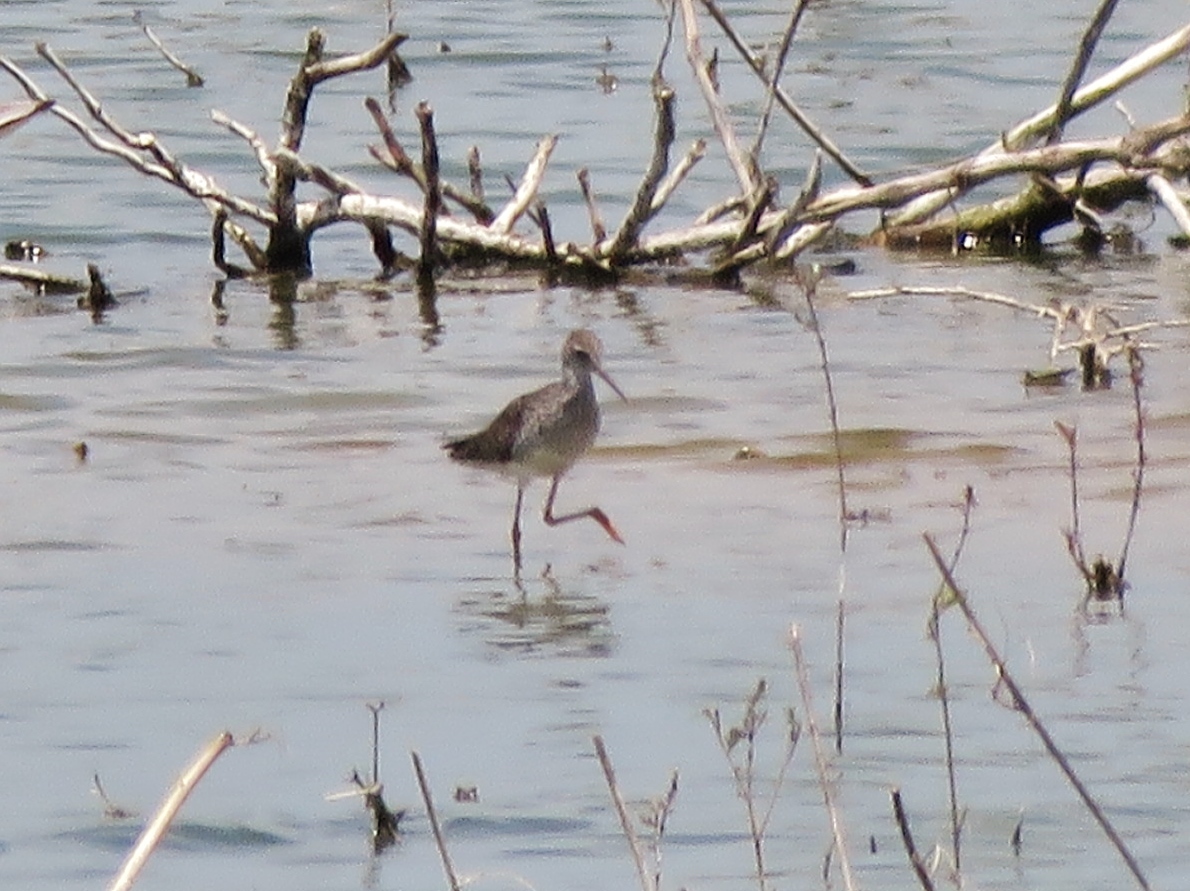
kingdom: Animalia
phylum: Chordata
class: Aves
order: Charadriiformes
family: Scolopacidae
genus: Tringa
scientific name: Tringa flavipes
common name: Lesser yellowlegs
